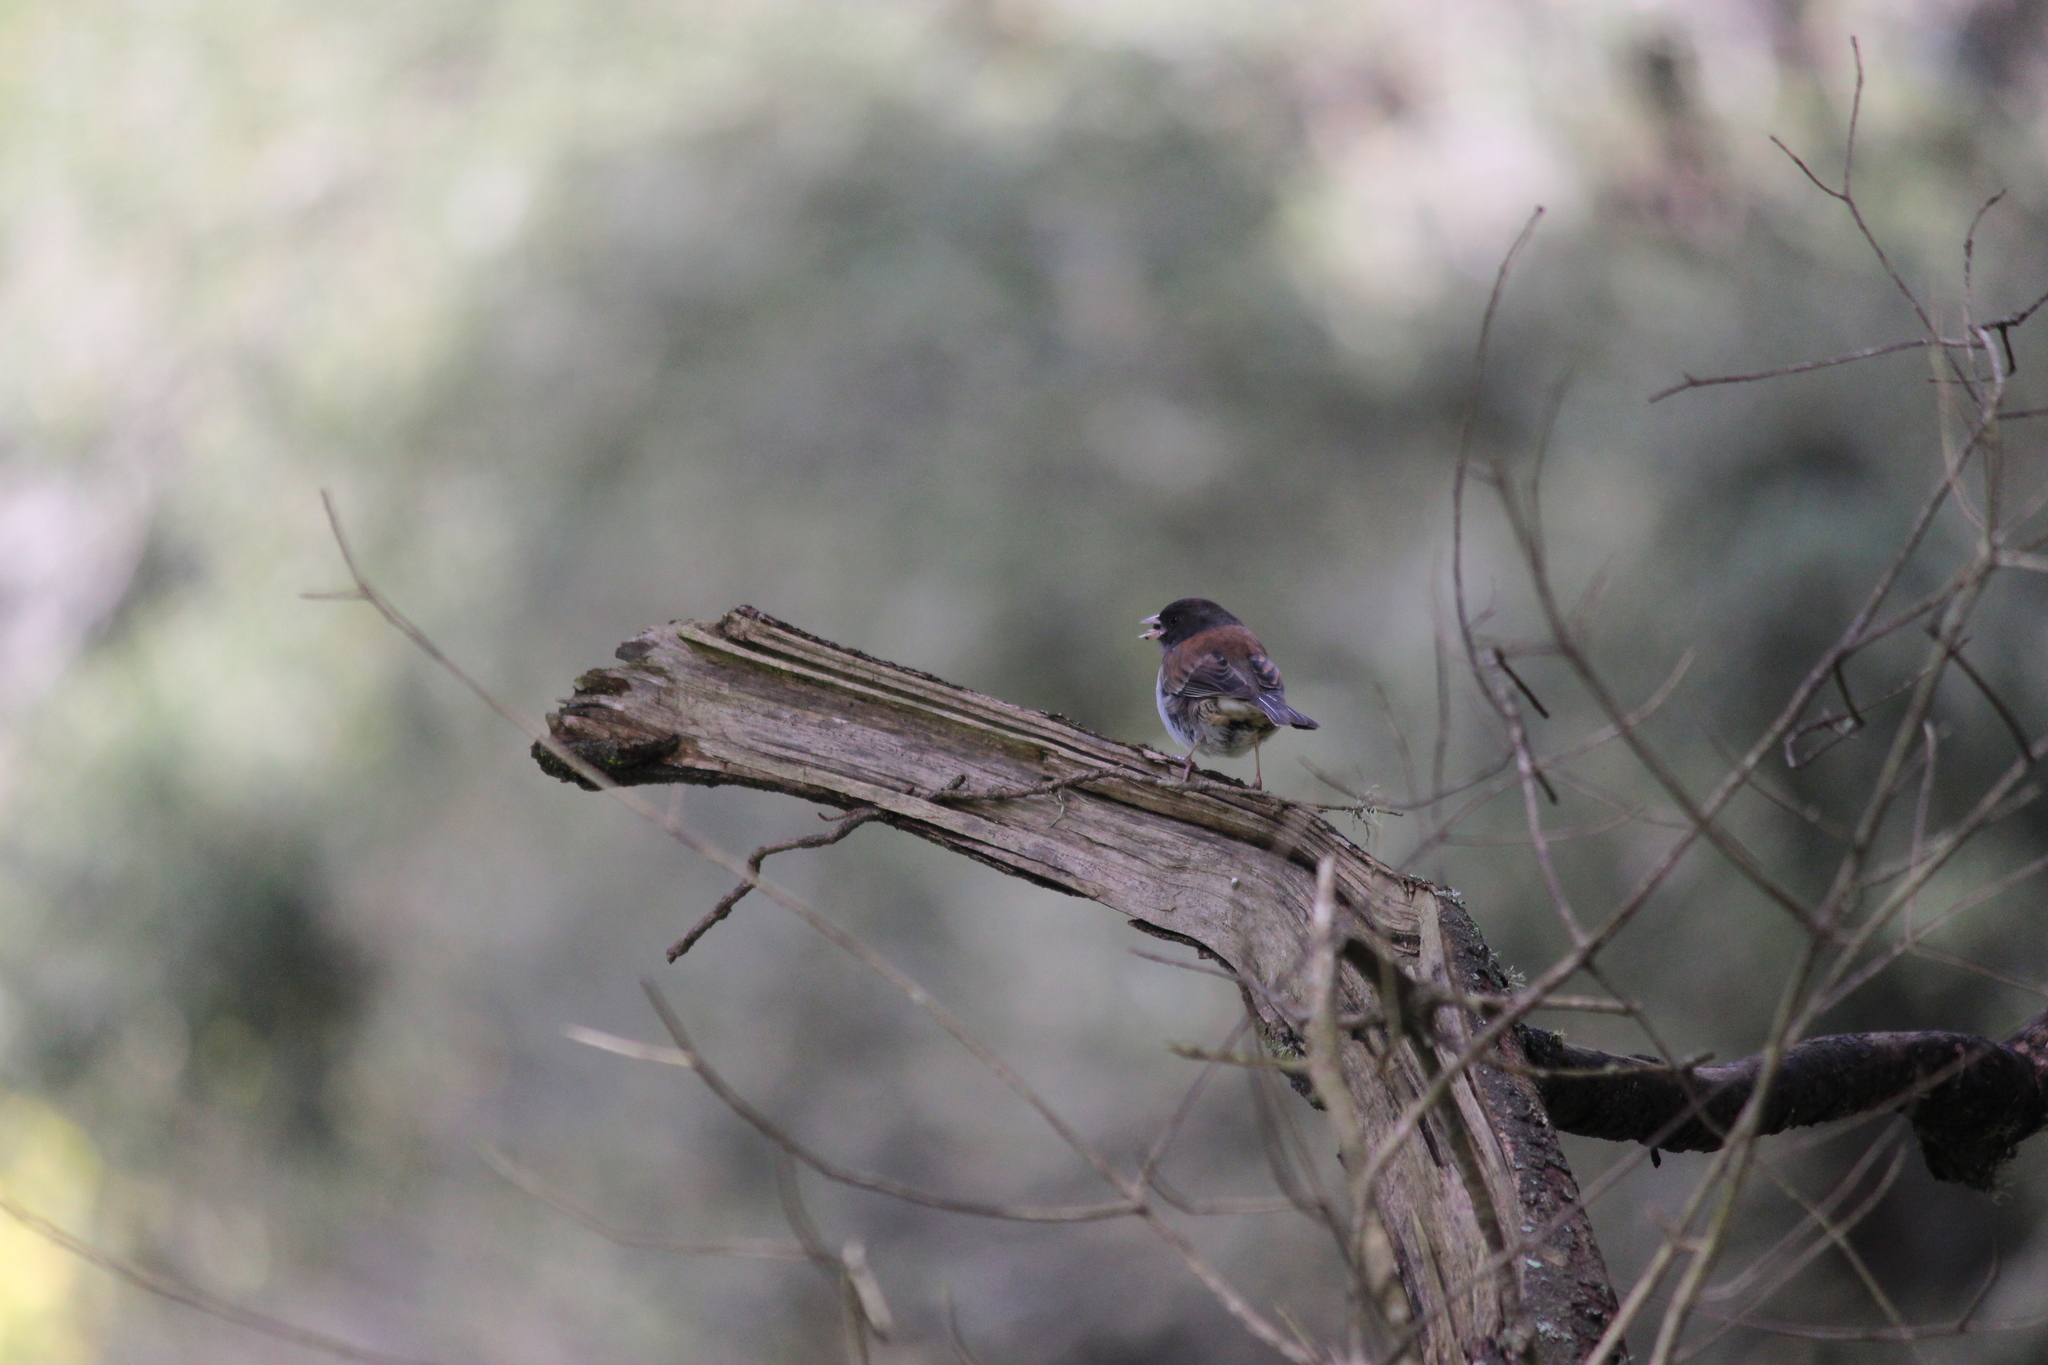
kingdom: Animalia
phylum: Chordata
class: Aves
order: Passeriformes
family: Passerellidae
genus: Junco
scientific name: Junco hyemalis
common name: Dark-eyed junco
